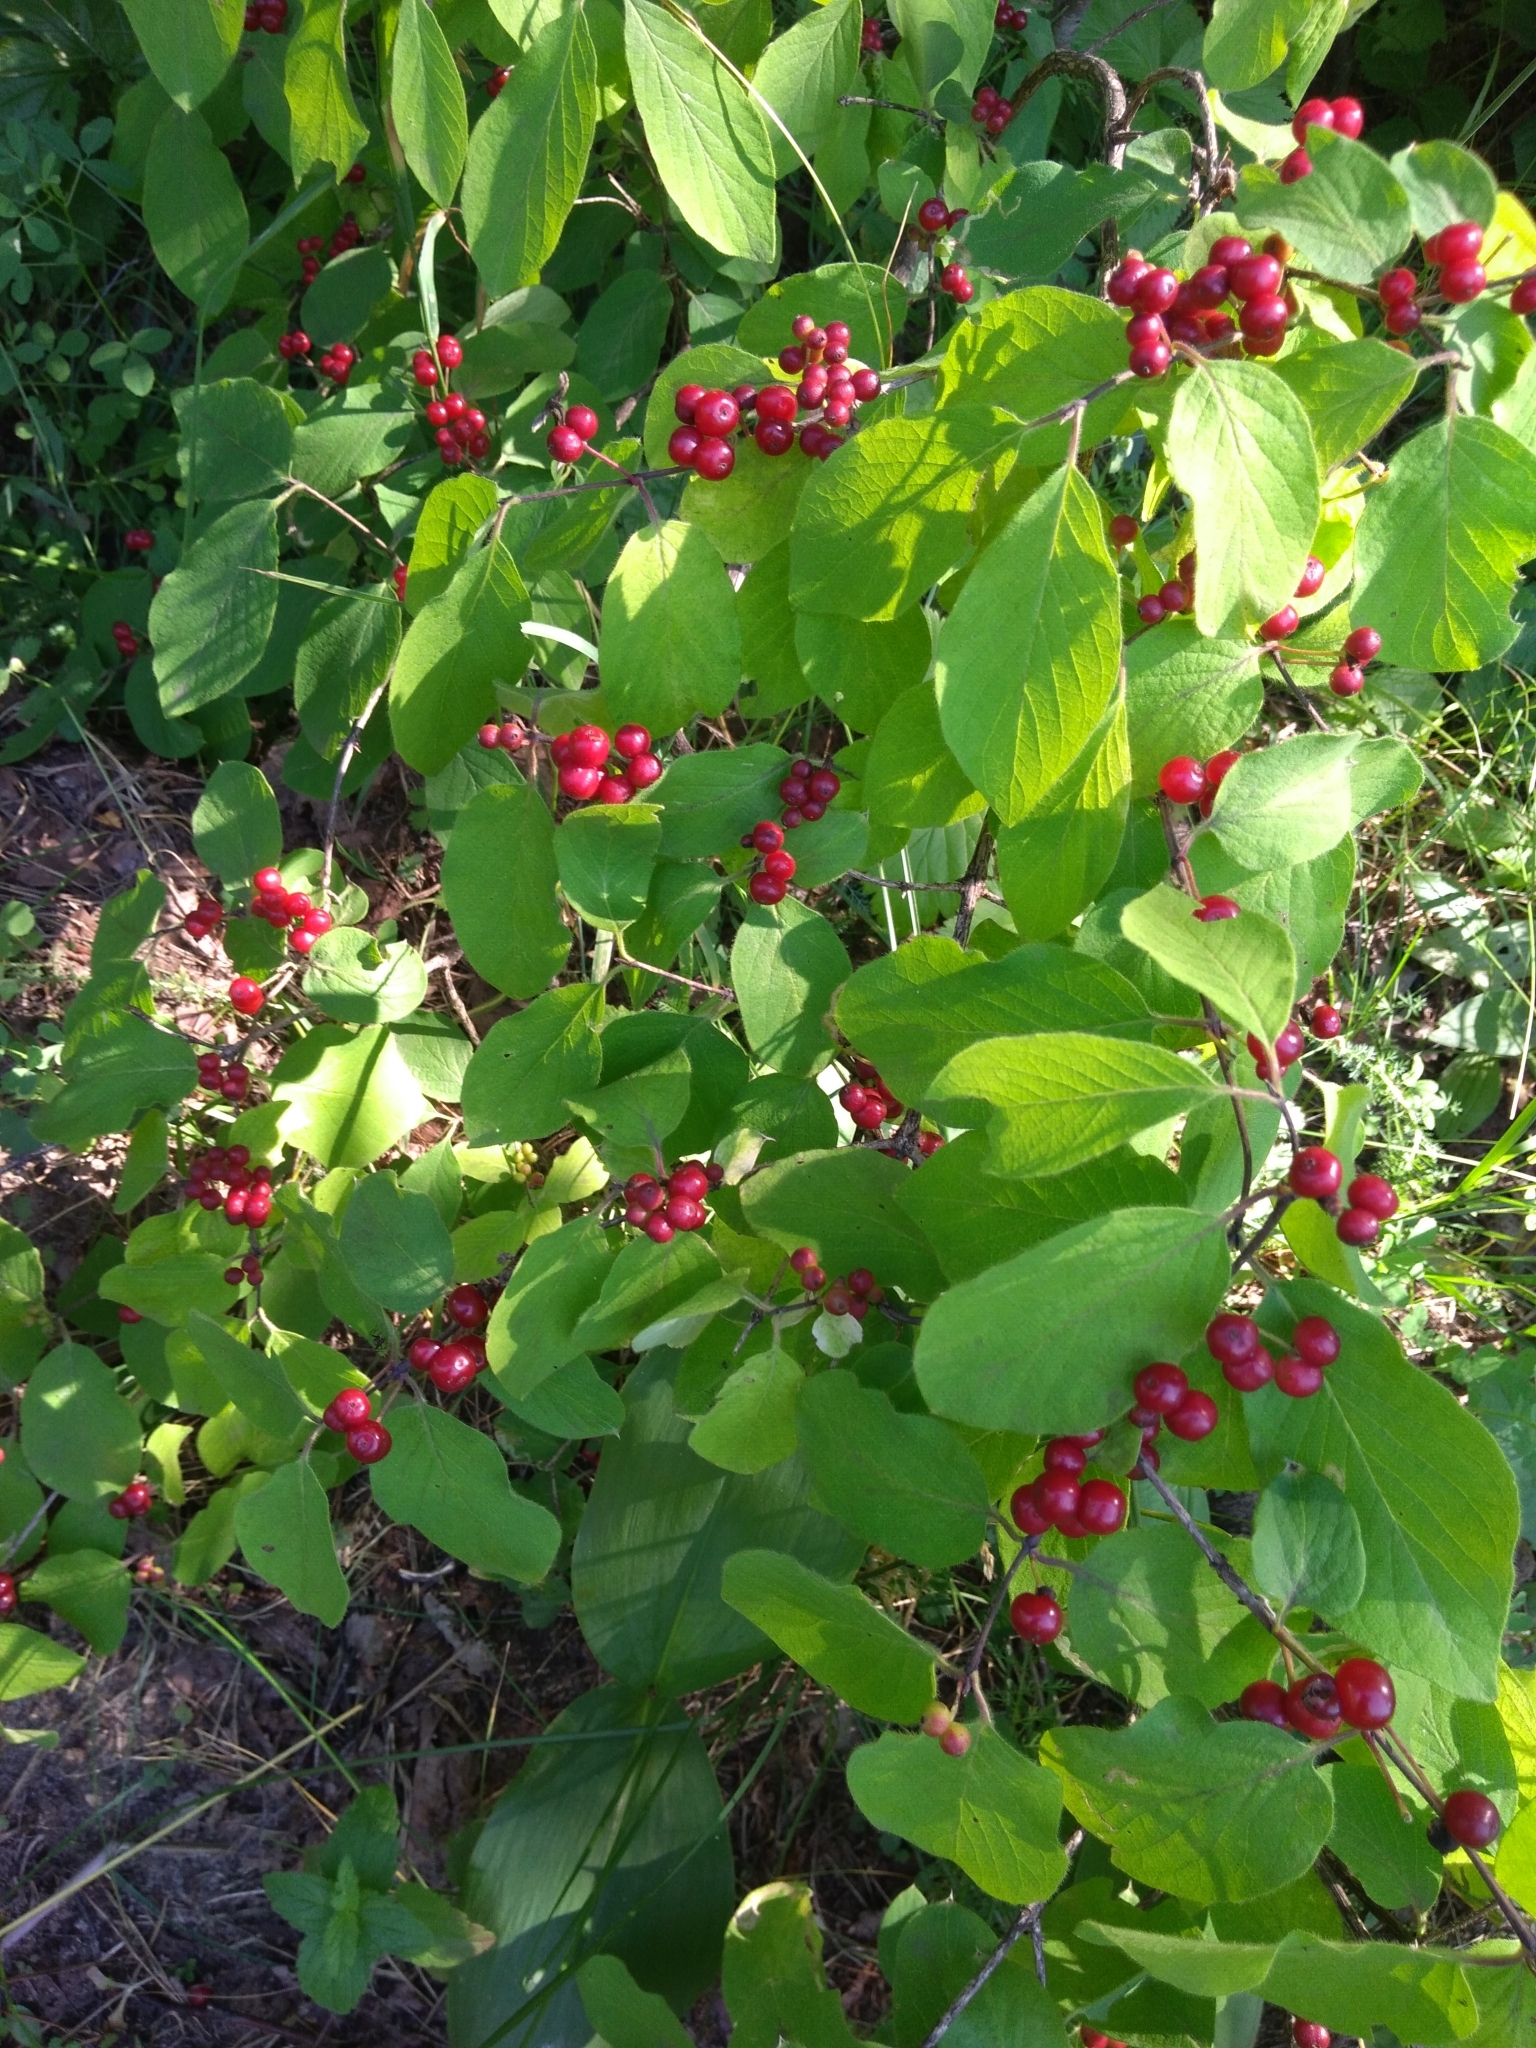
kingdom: Plantae
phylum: Tracheophyta
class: Magnoliopsida
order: Dipsacales
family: Caprifoliaceae
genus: Lonicera
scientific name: Lonicera xylosteum
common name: Fly honeysuckle
